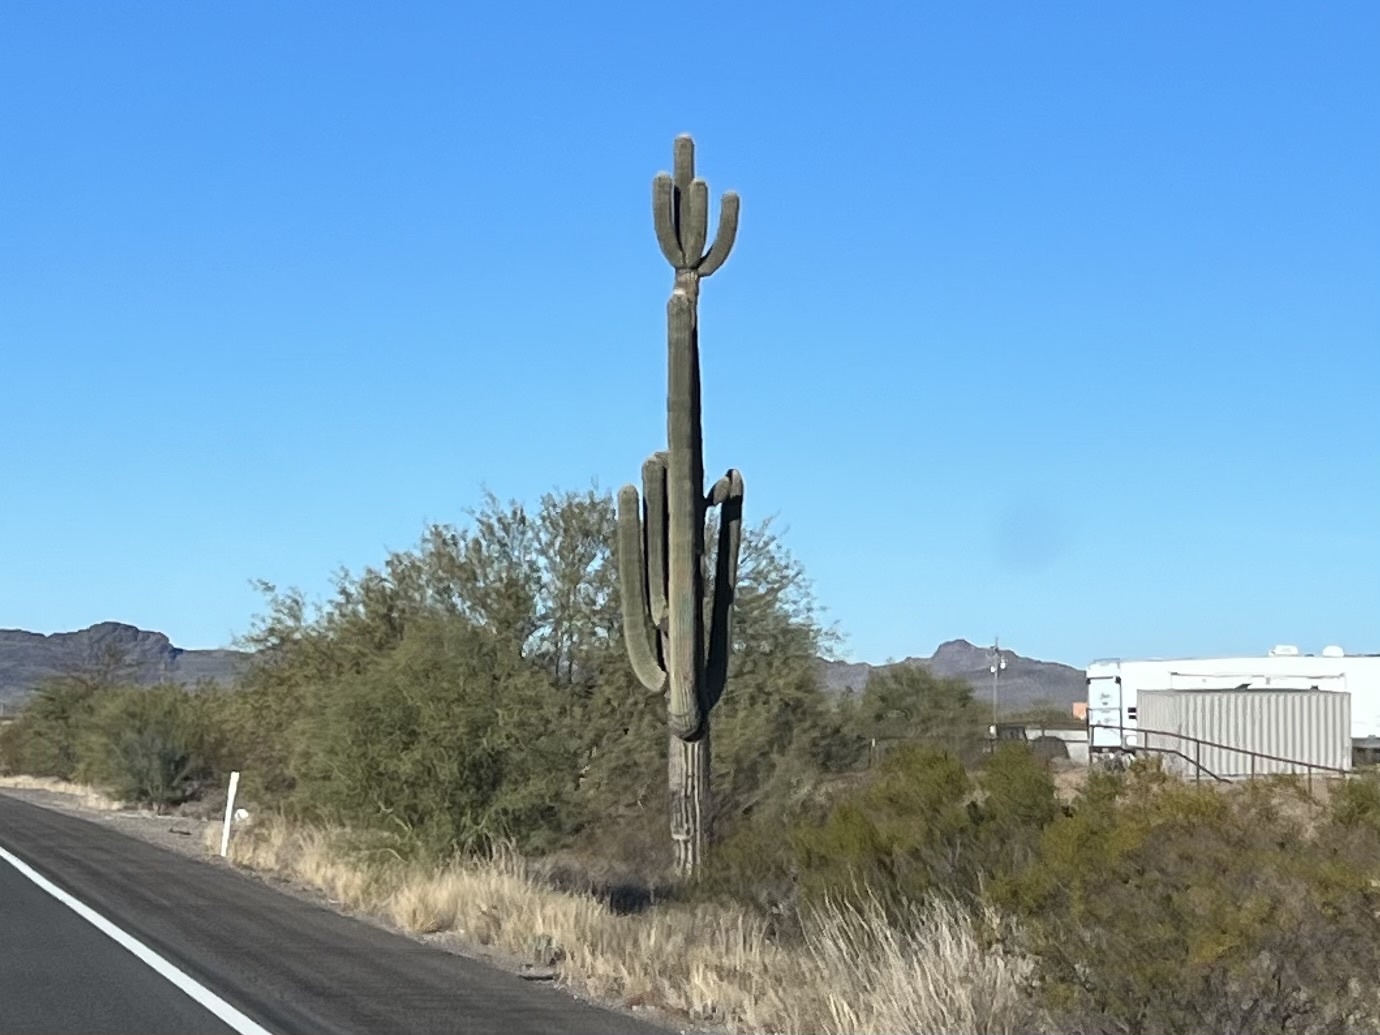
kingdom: Plantae
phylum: Tracheophyta
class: Magnoliopsida
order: Caryophyllales
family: Cactaceae
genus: Carnegiea
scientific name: Carnegiea gigantea
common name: Saguaro
